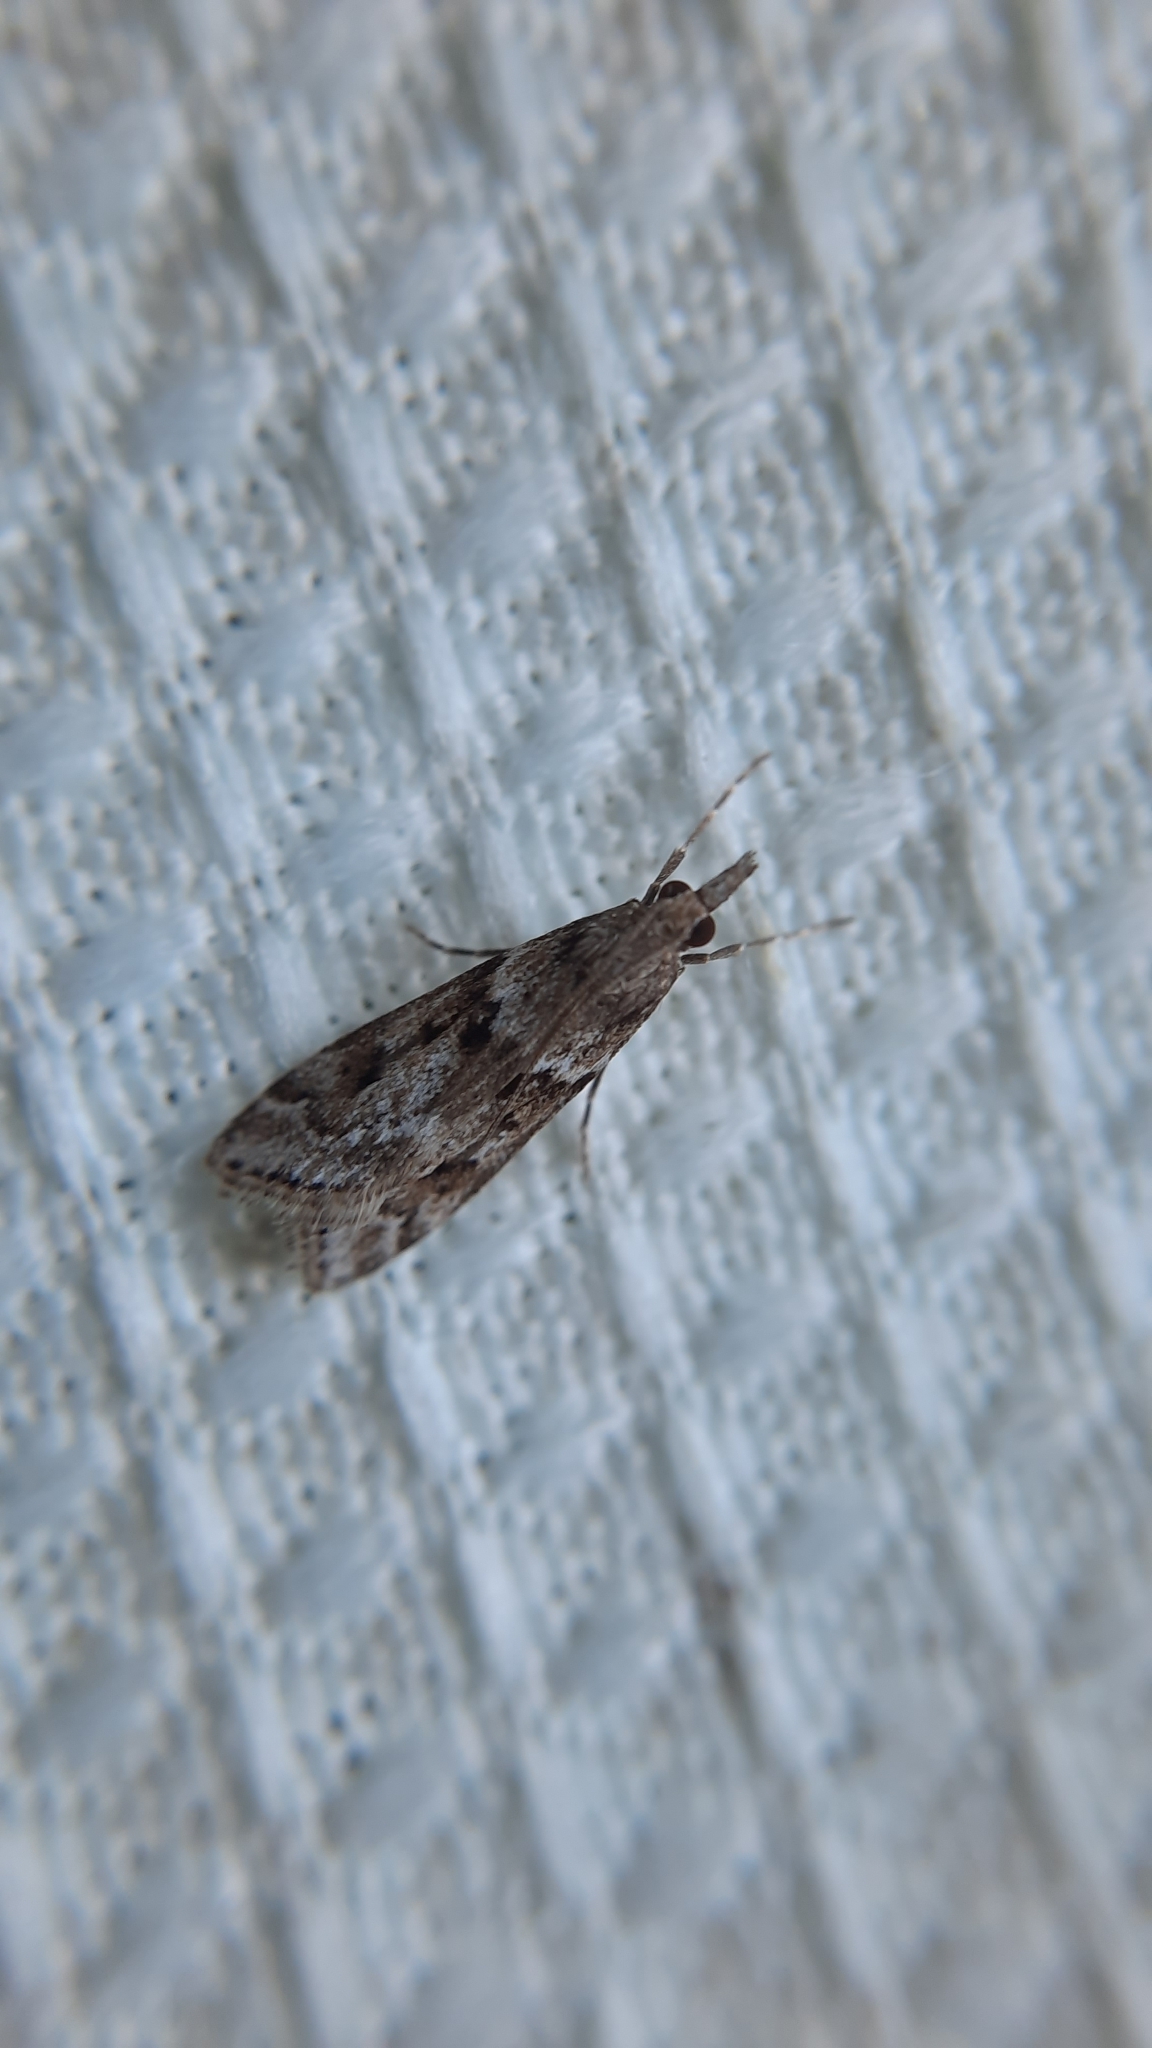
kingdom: Animalia
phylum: Arthropoda
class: Insecta
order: Lepidoptera
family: Crambidae
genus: Eudonia
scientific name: Eudonia angustea
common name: Narrow-winged grey
